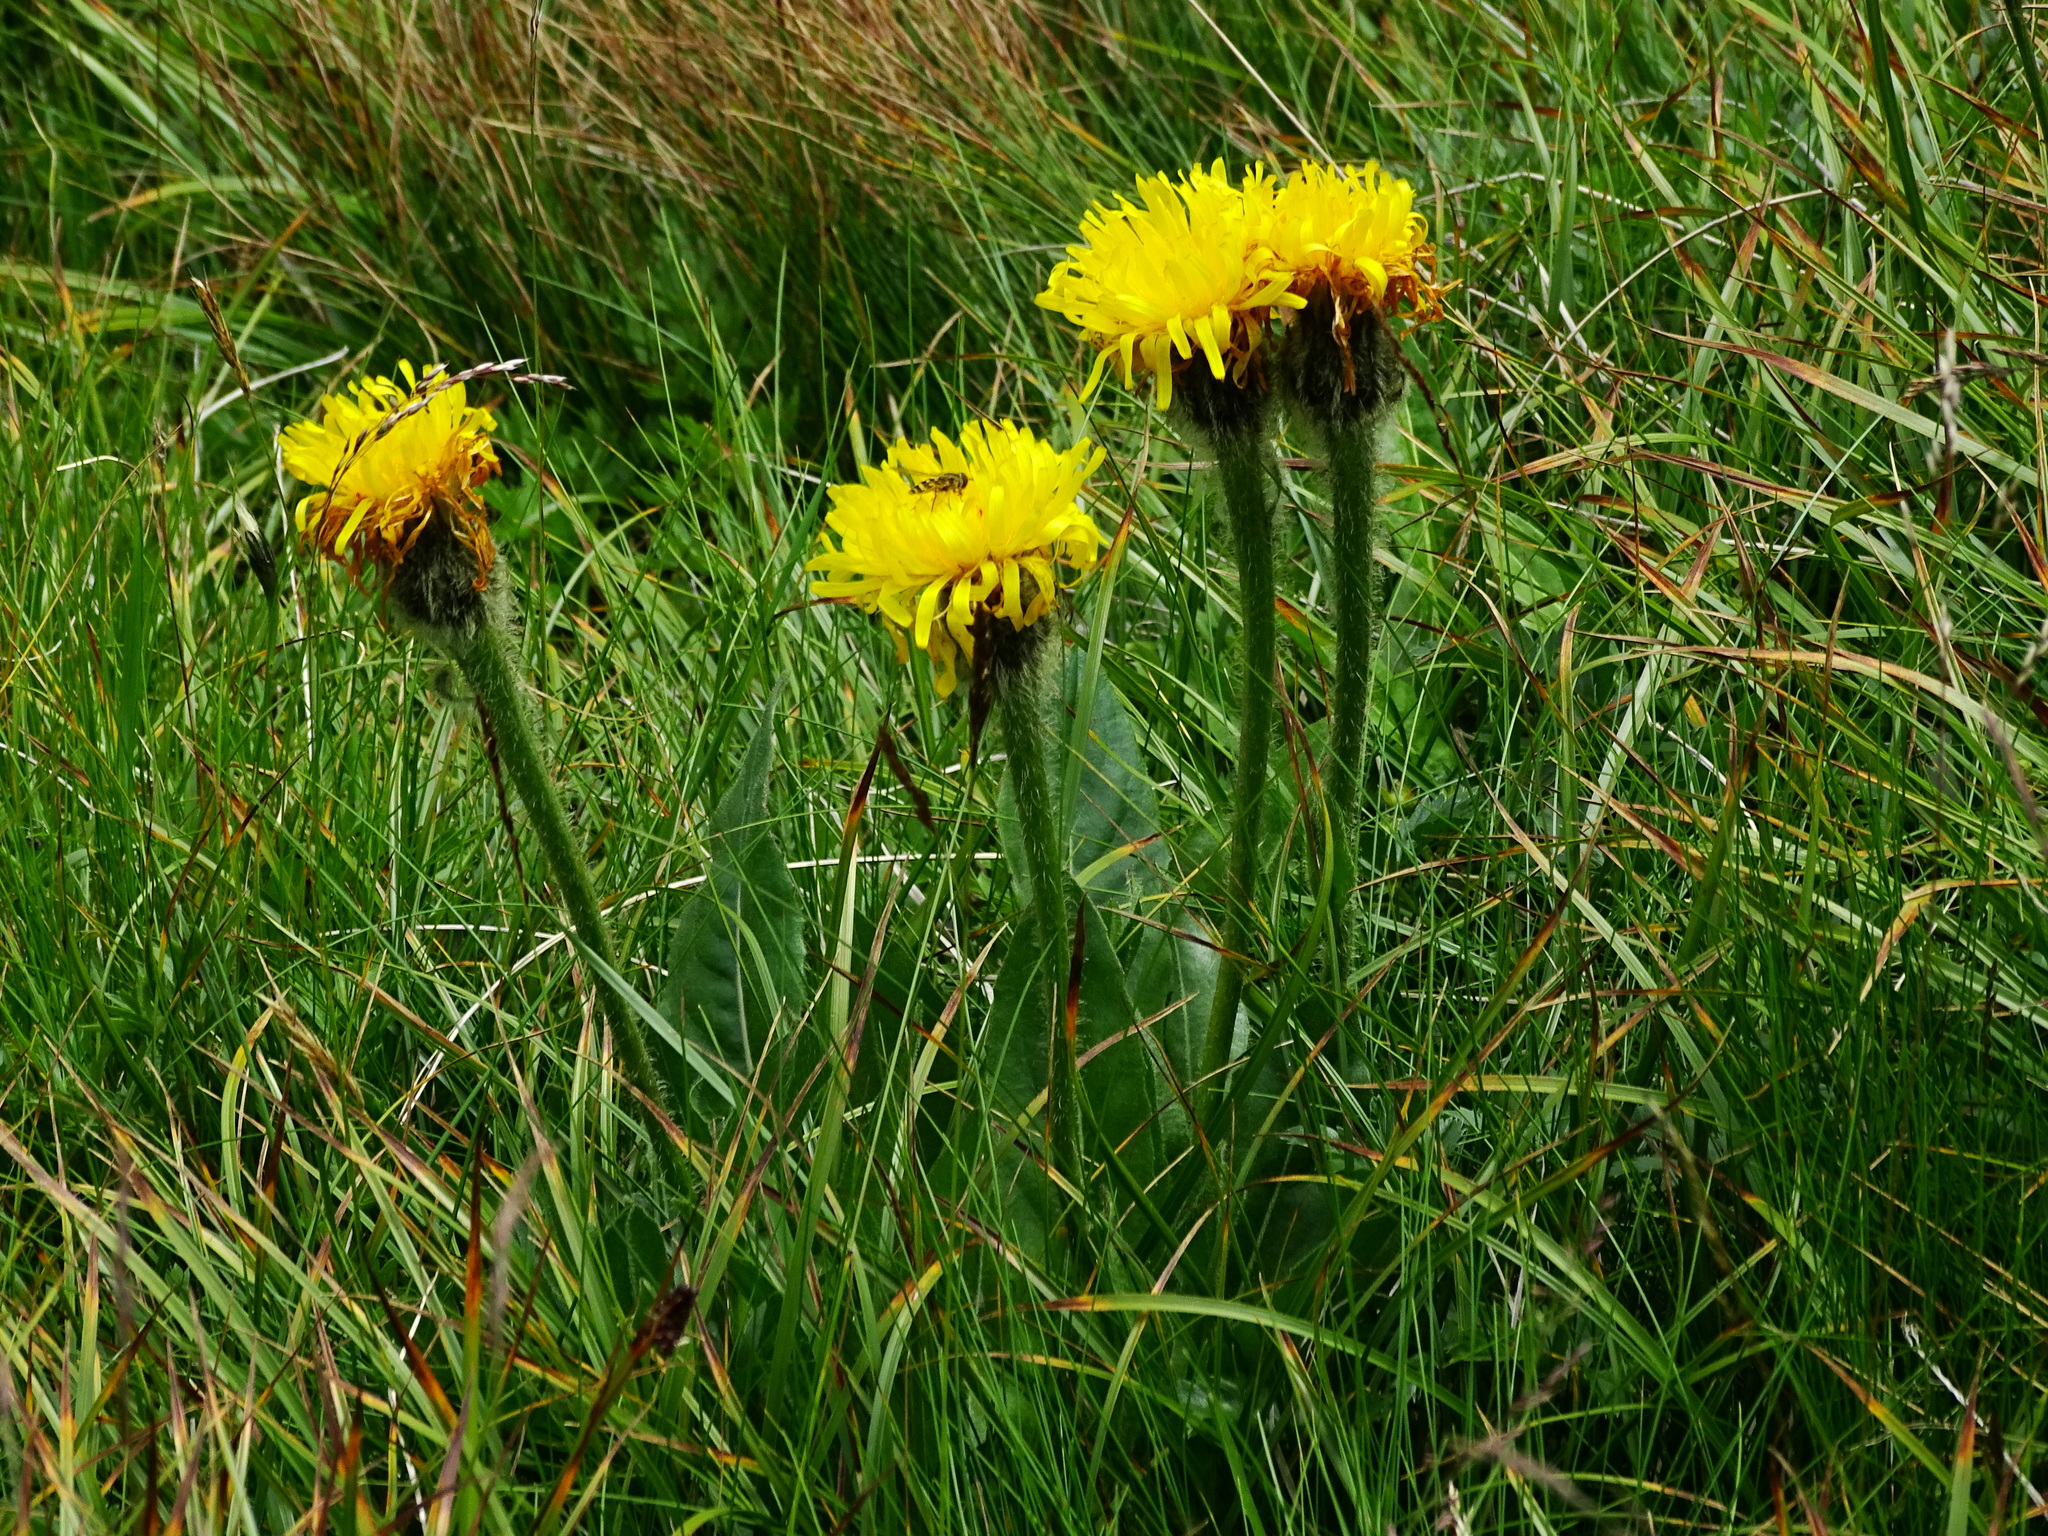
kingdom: Plantae
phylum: Tracheophyta
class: Magnoliopsida
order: Asterales
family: Asteraceae
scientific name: Asteraceae
